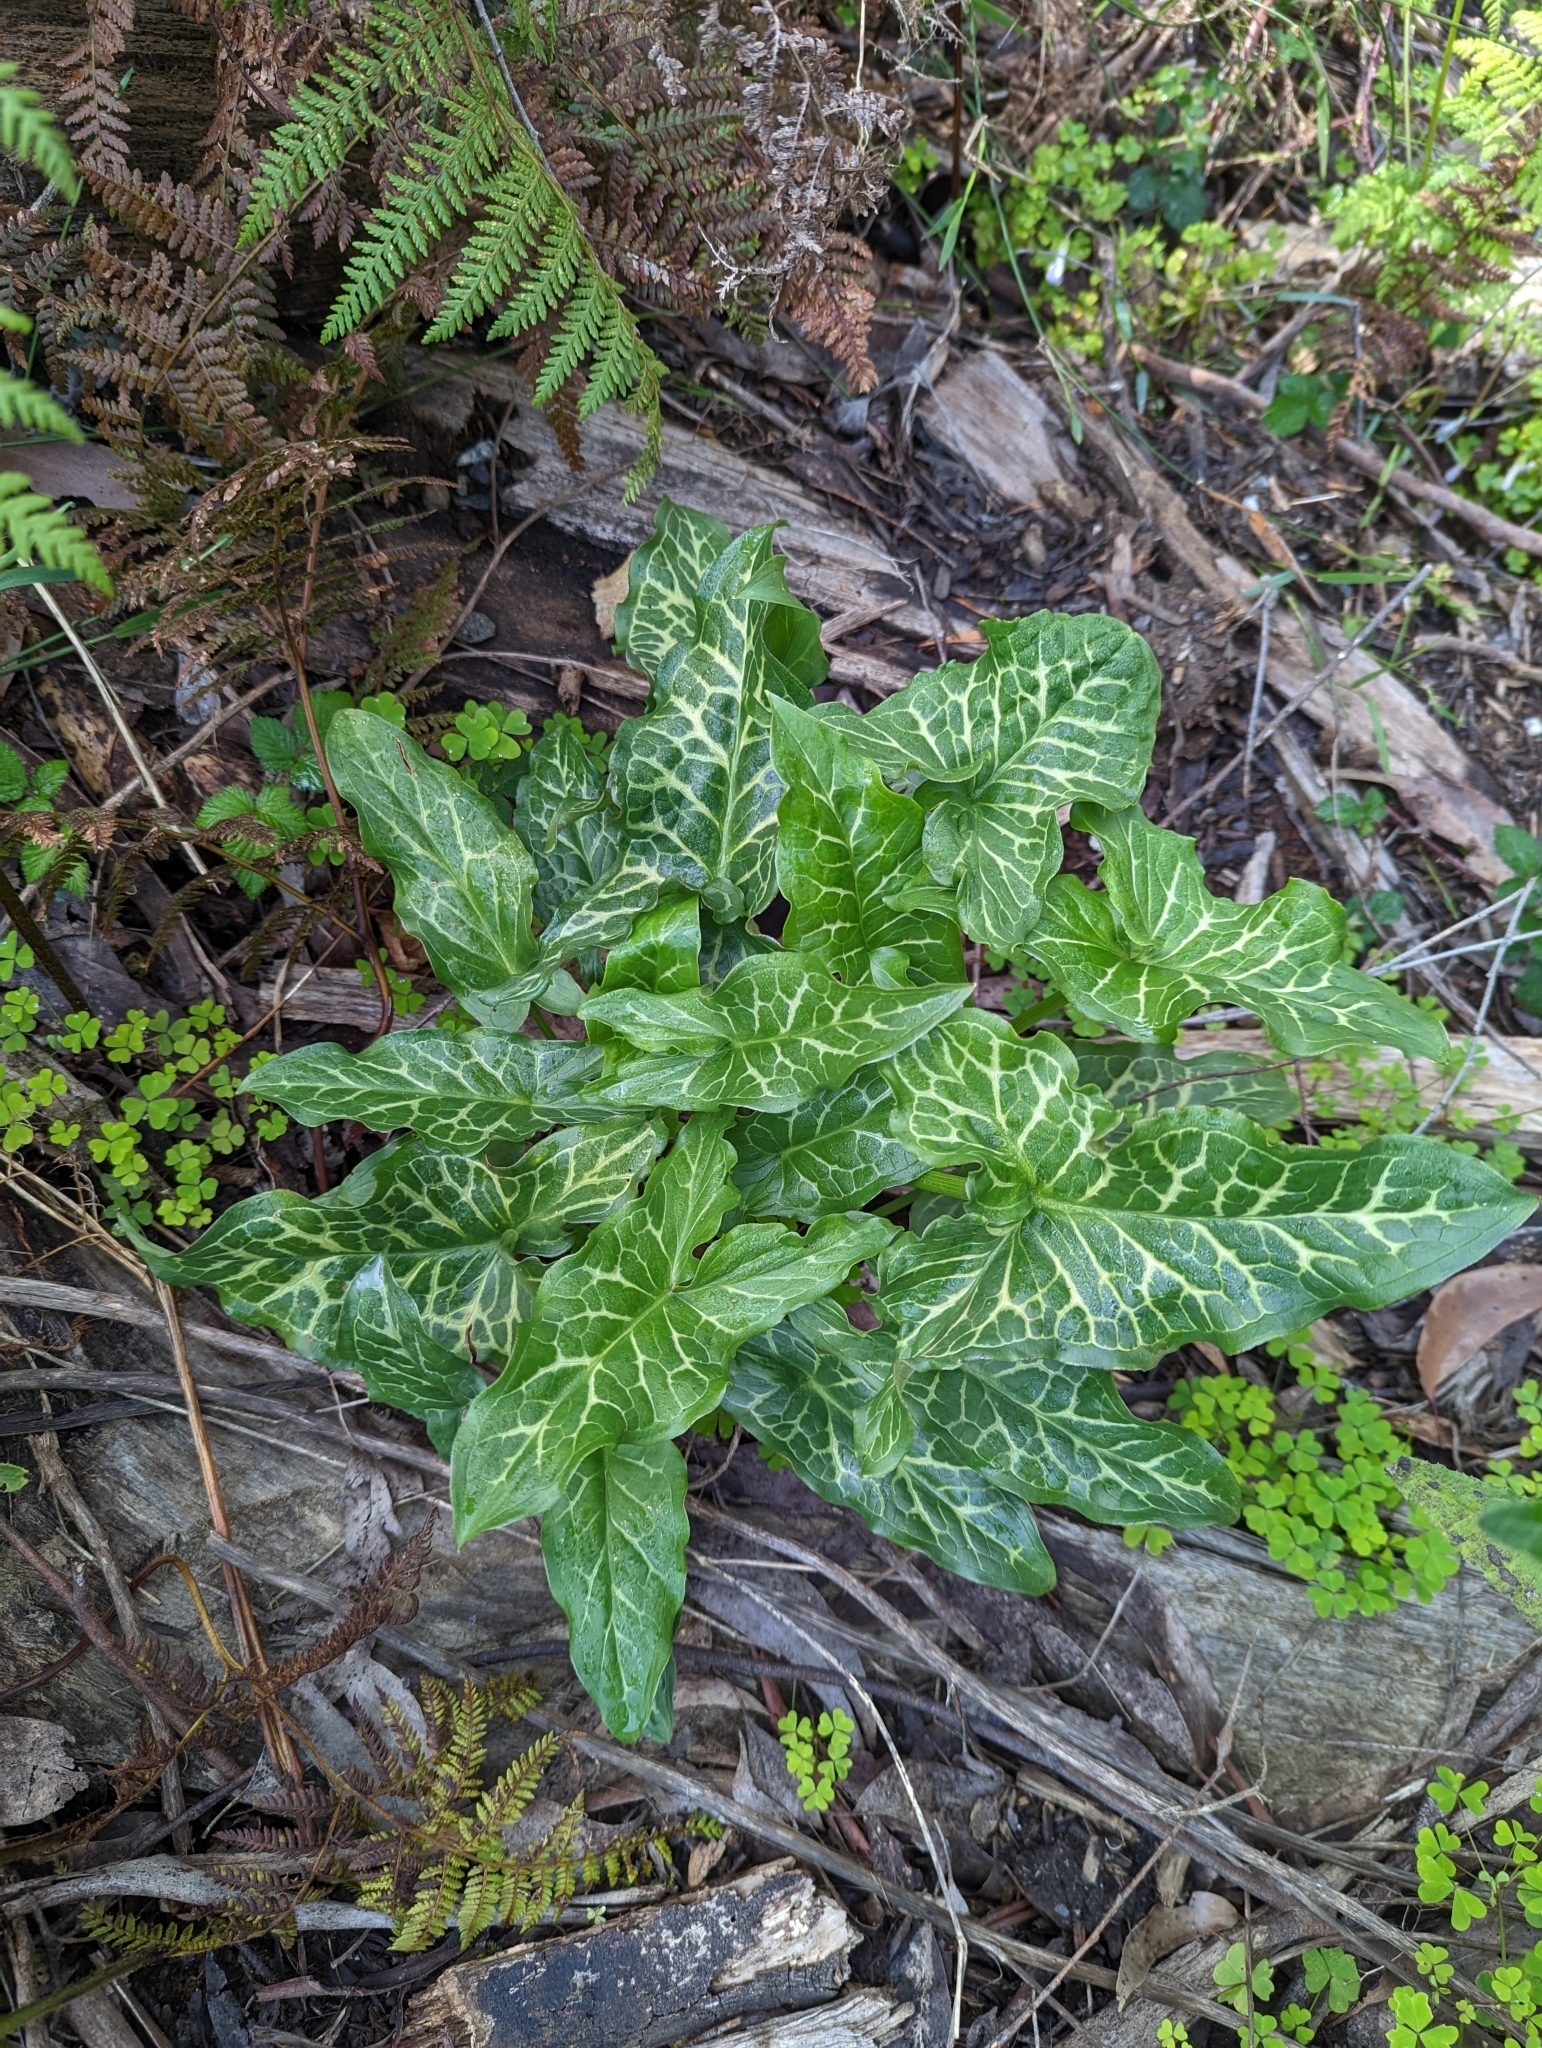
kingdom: Plantae
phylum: Tracheophyta
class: Liliopsida
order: Alismatales
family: Araceae
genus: Arum
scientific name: Arum italicum
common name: Italian lords-and-ladies
